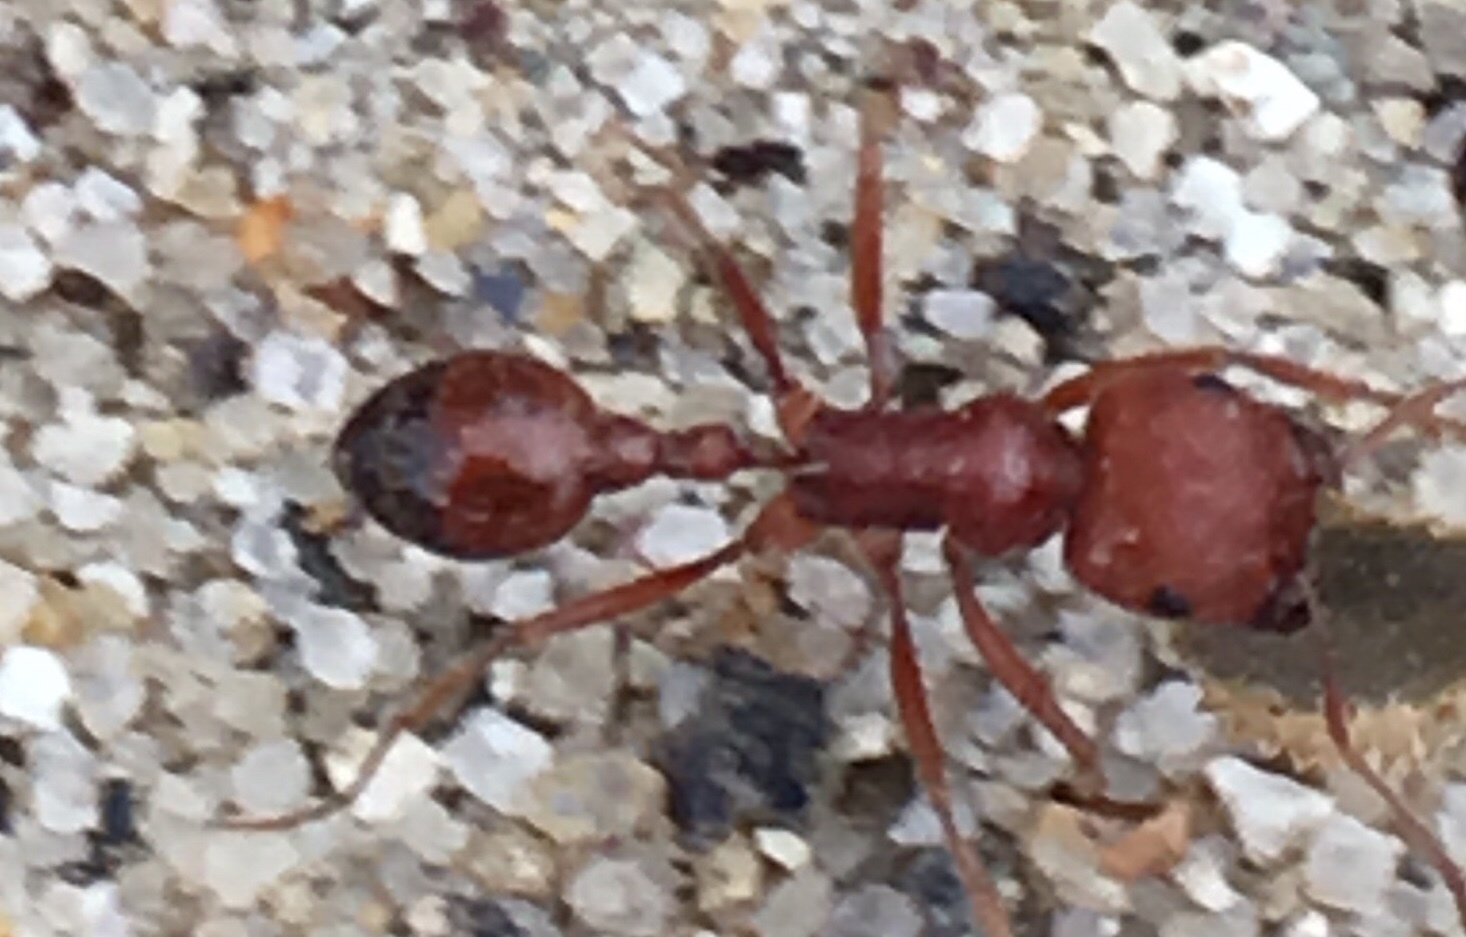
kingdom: Animalia
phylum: Arthropoda
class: Insecta
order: Hymenoptera
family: Formicidae
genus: Pogonomyrmex
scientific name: Pogonomyrmex californicus
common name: California harvester ant
